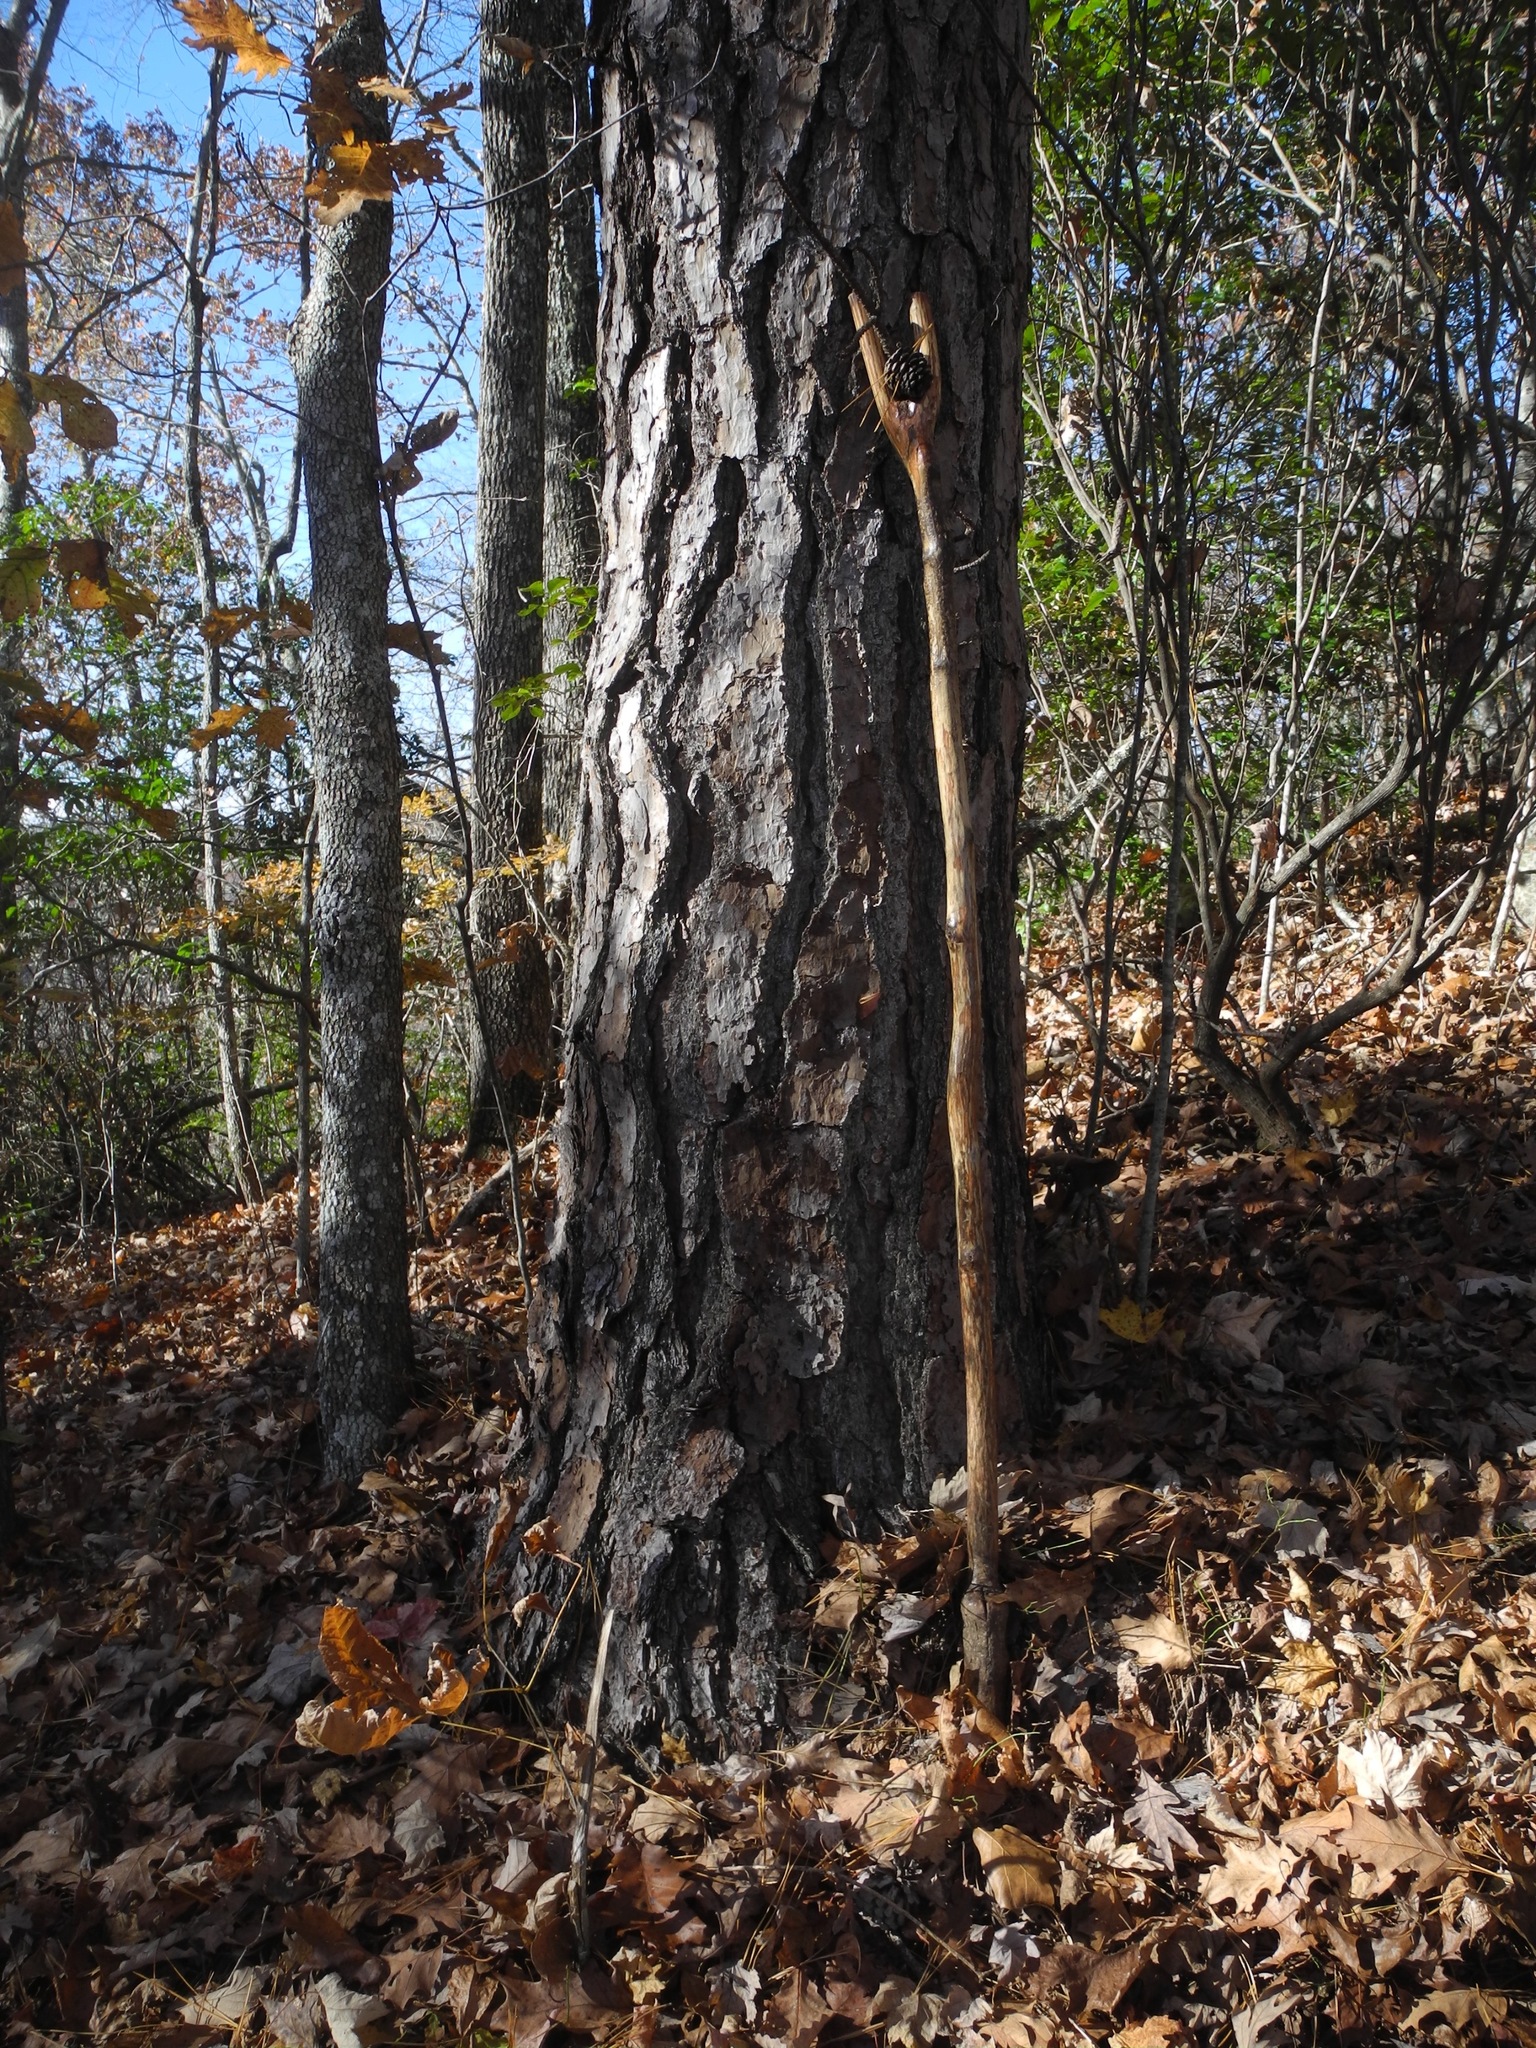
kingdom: Plantae
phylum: Tracheophyta
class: Pinopsida
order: Pinales
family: Pinaceae
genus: Pinus
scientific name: Pinus rigida
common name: Pitch pine
